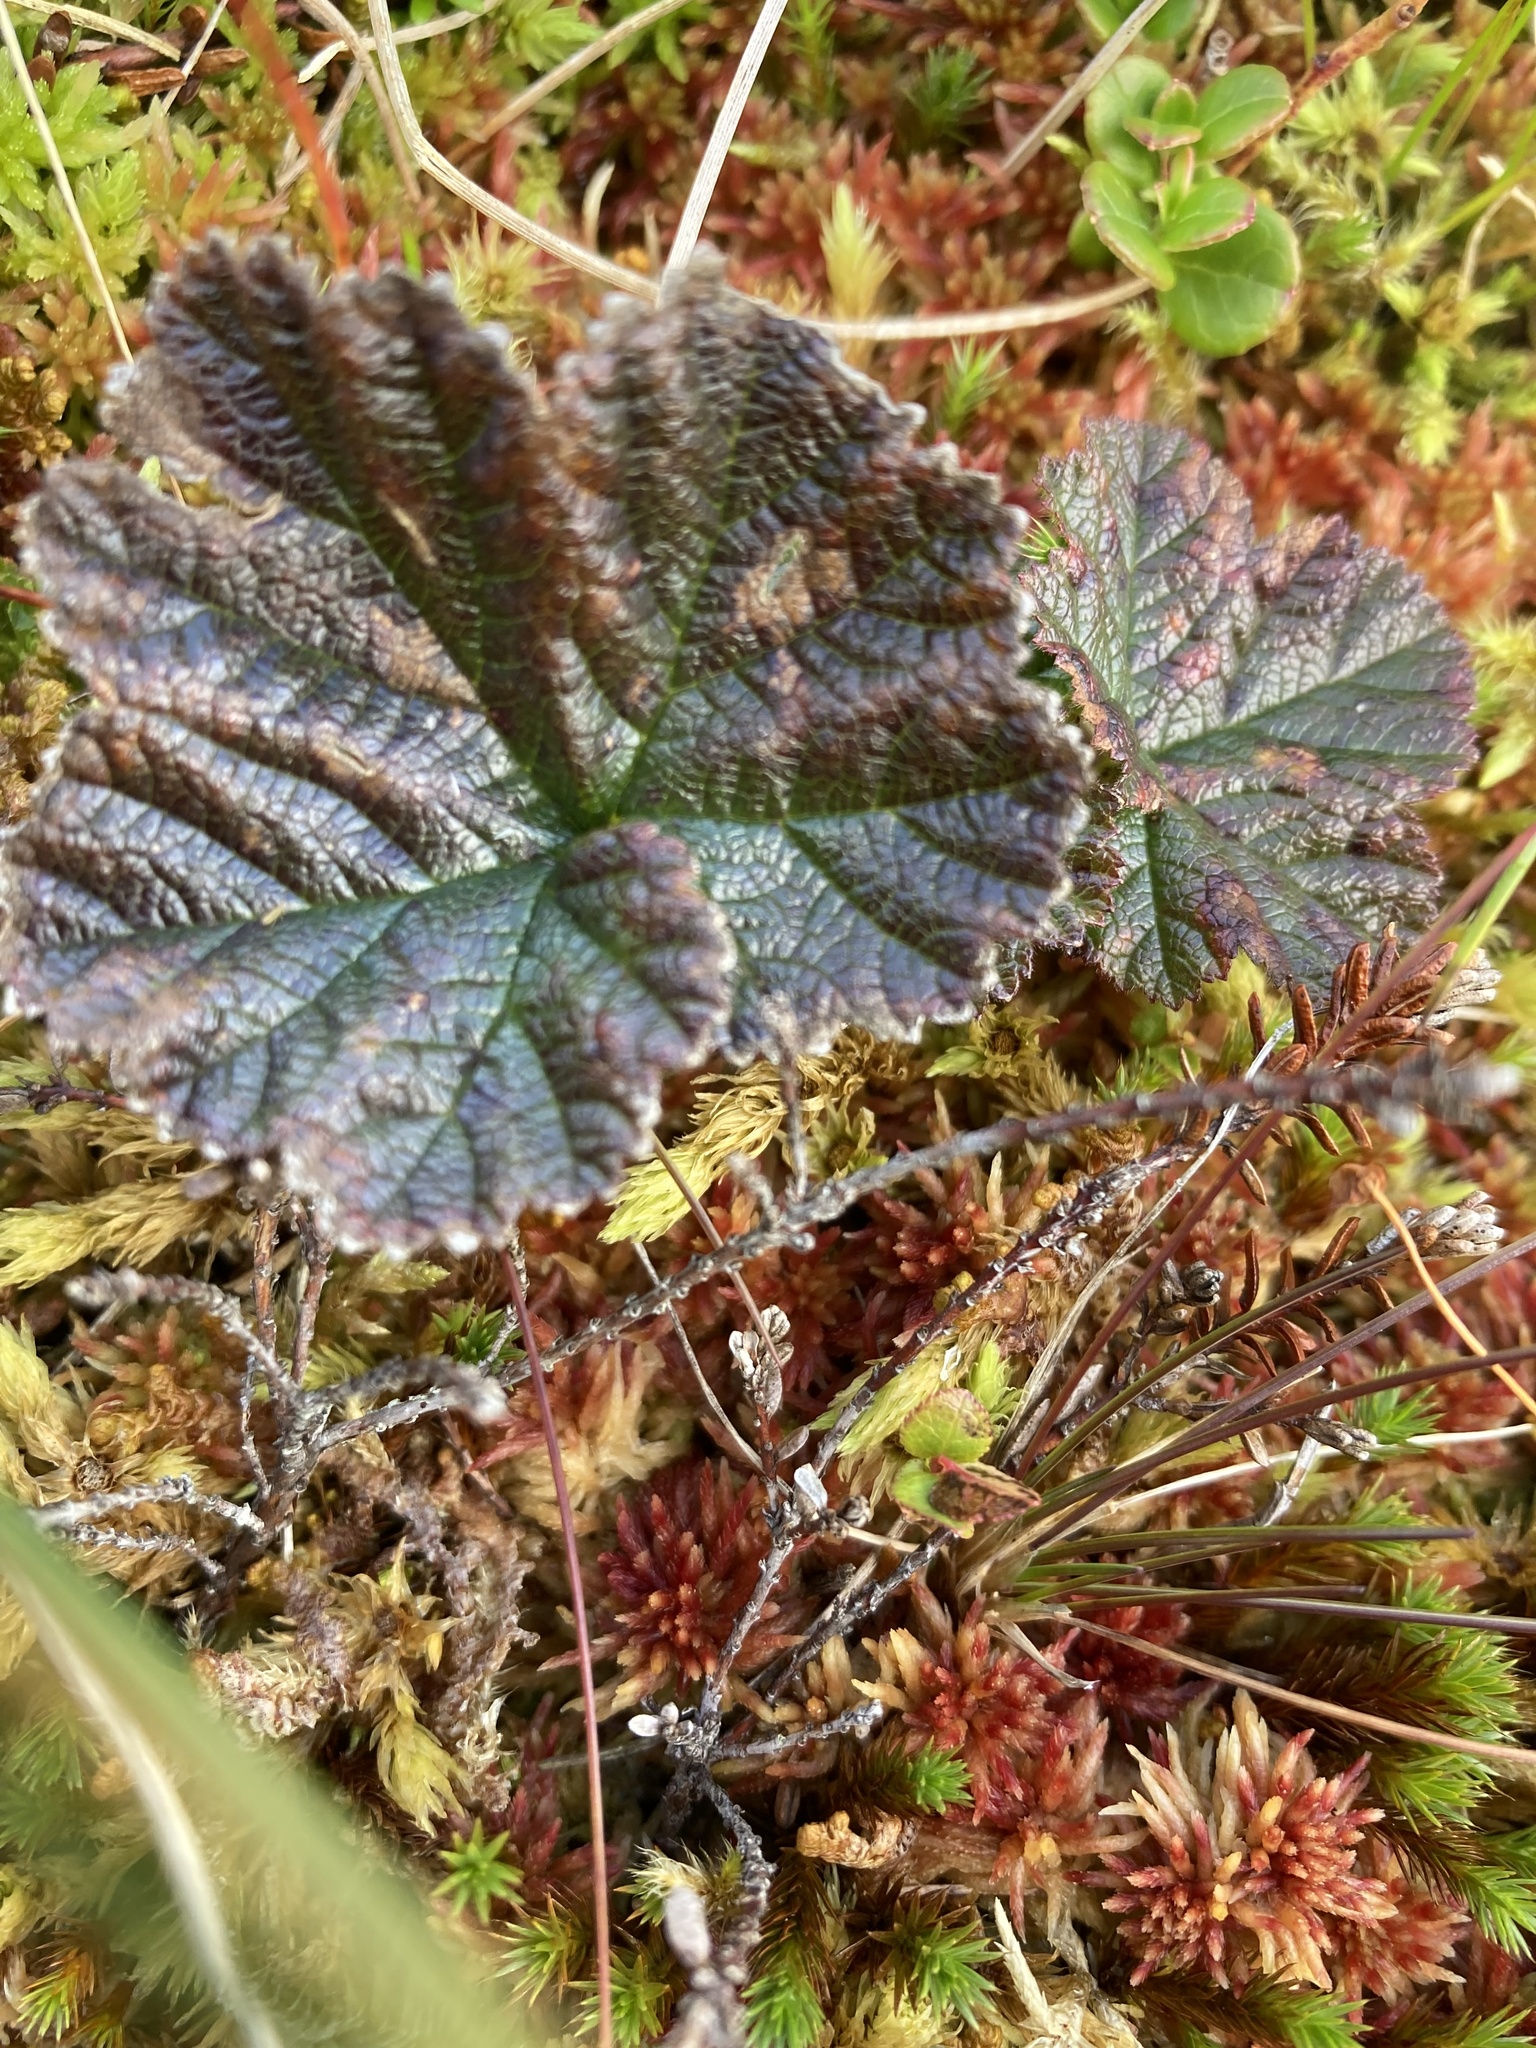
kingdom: Plantae
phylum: Tracheophyta
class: Magnoliopsida
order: Rosales
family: Rosaceae
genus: Rubus
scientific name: Rubus chamaemorus
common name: Cloudberry
